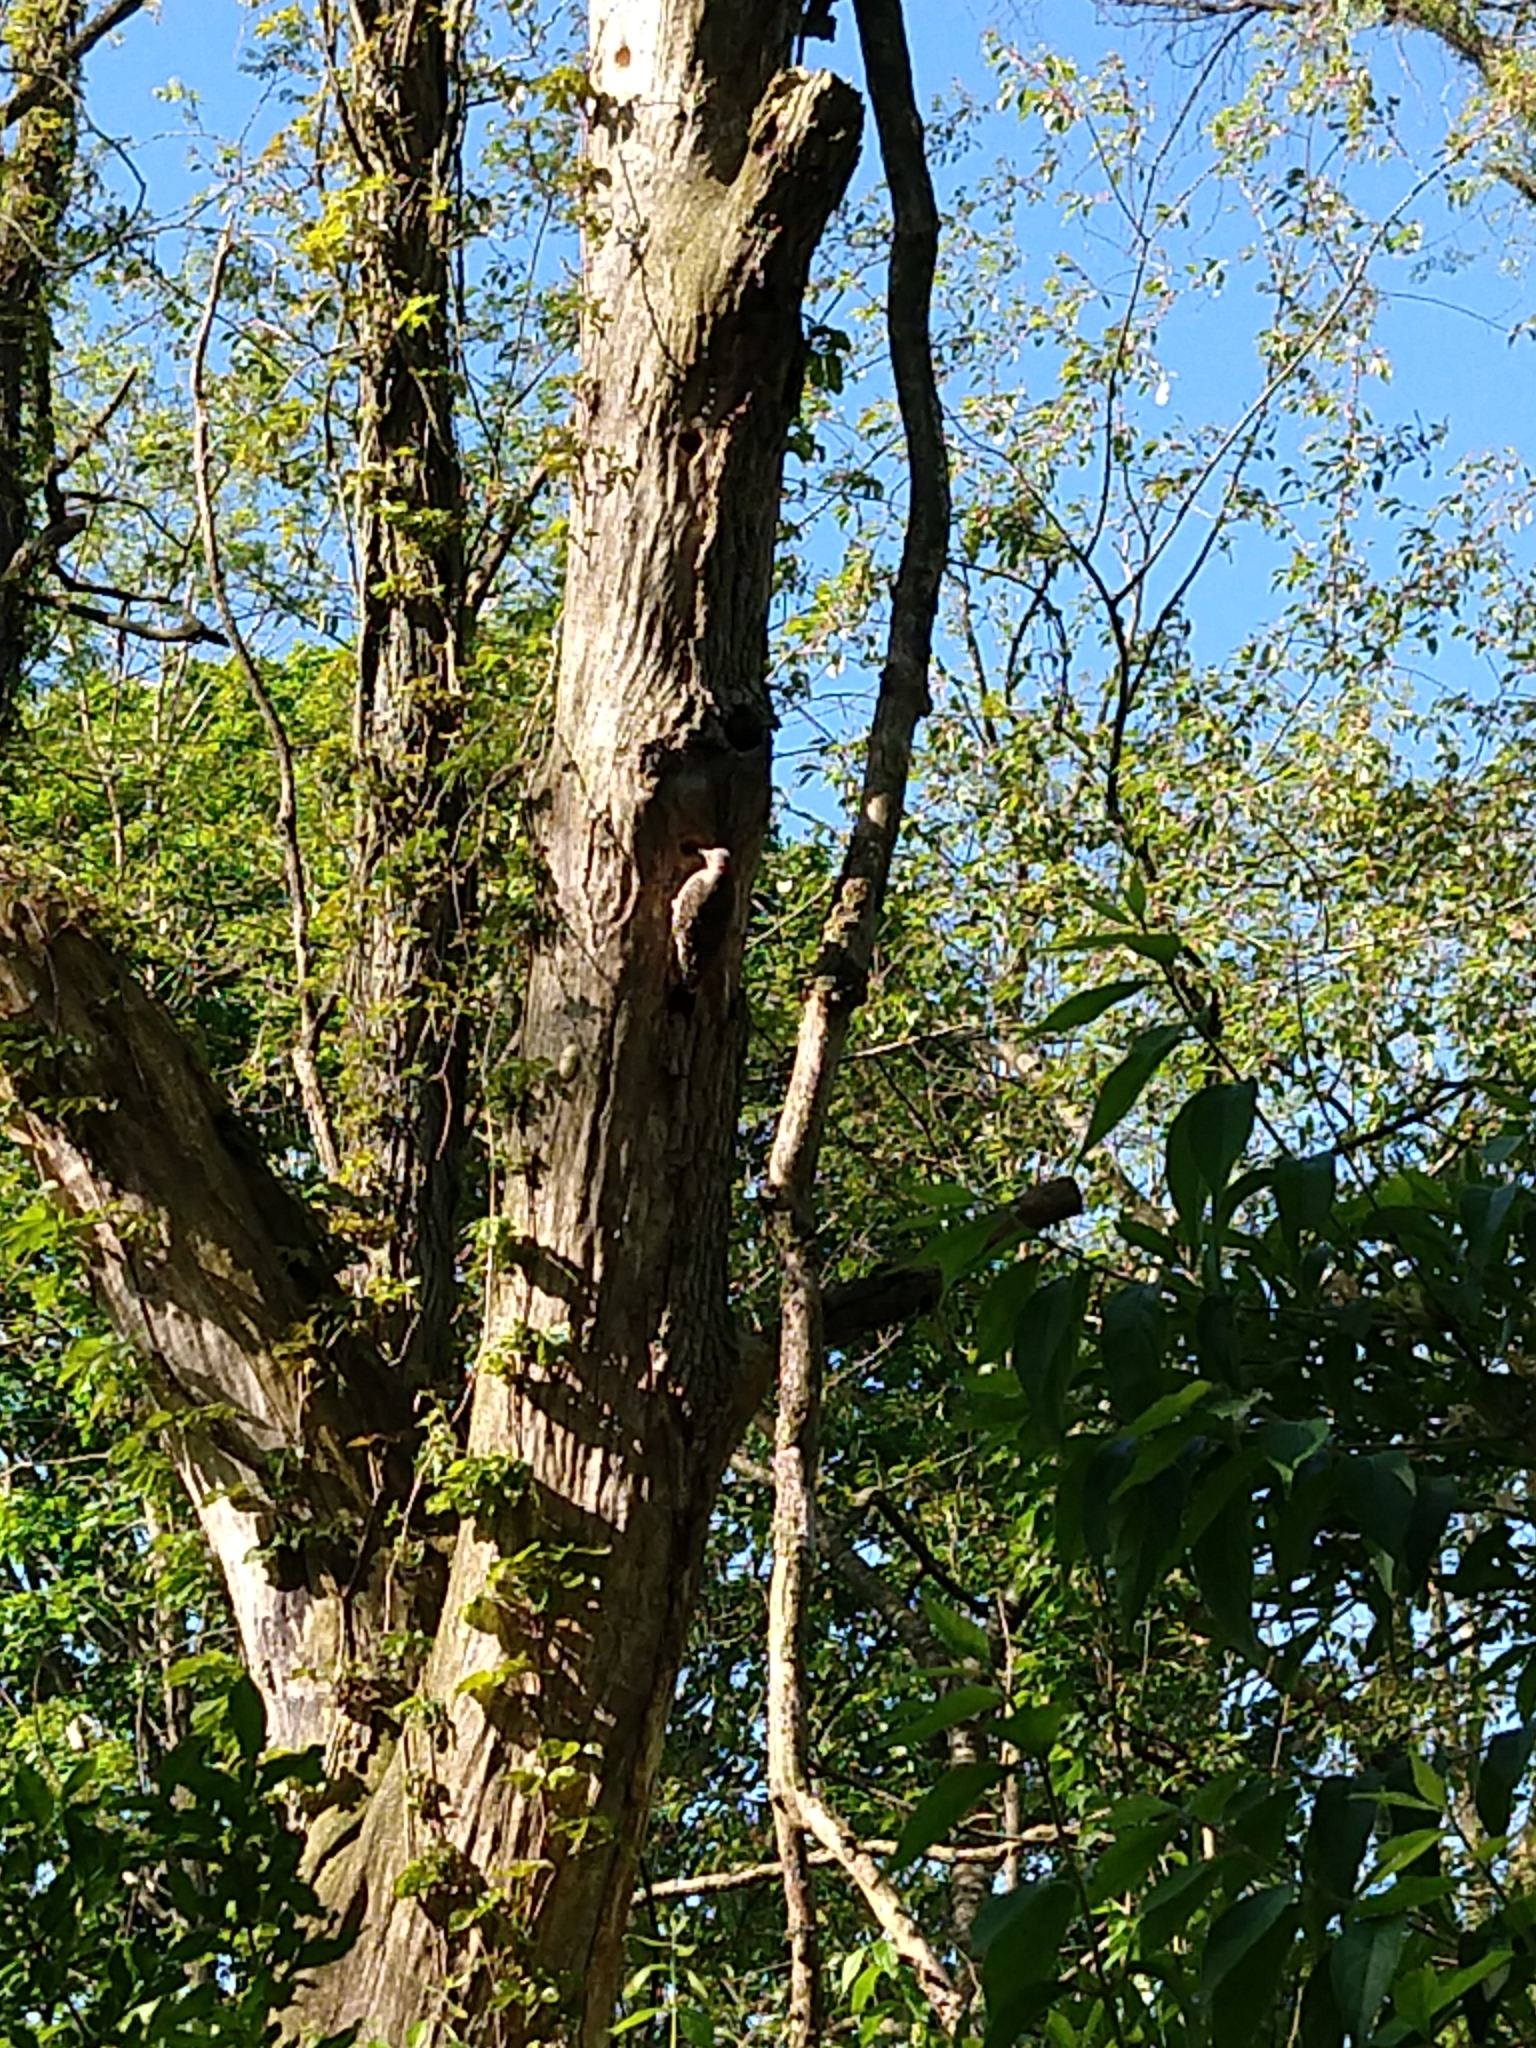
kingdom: Animalia
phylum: Chordata
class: Aves
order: Piciformes
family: Picidae
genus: Colaptes
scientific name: Colaptes auratus
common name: Northern flicker
